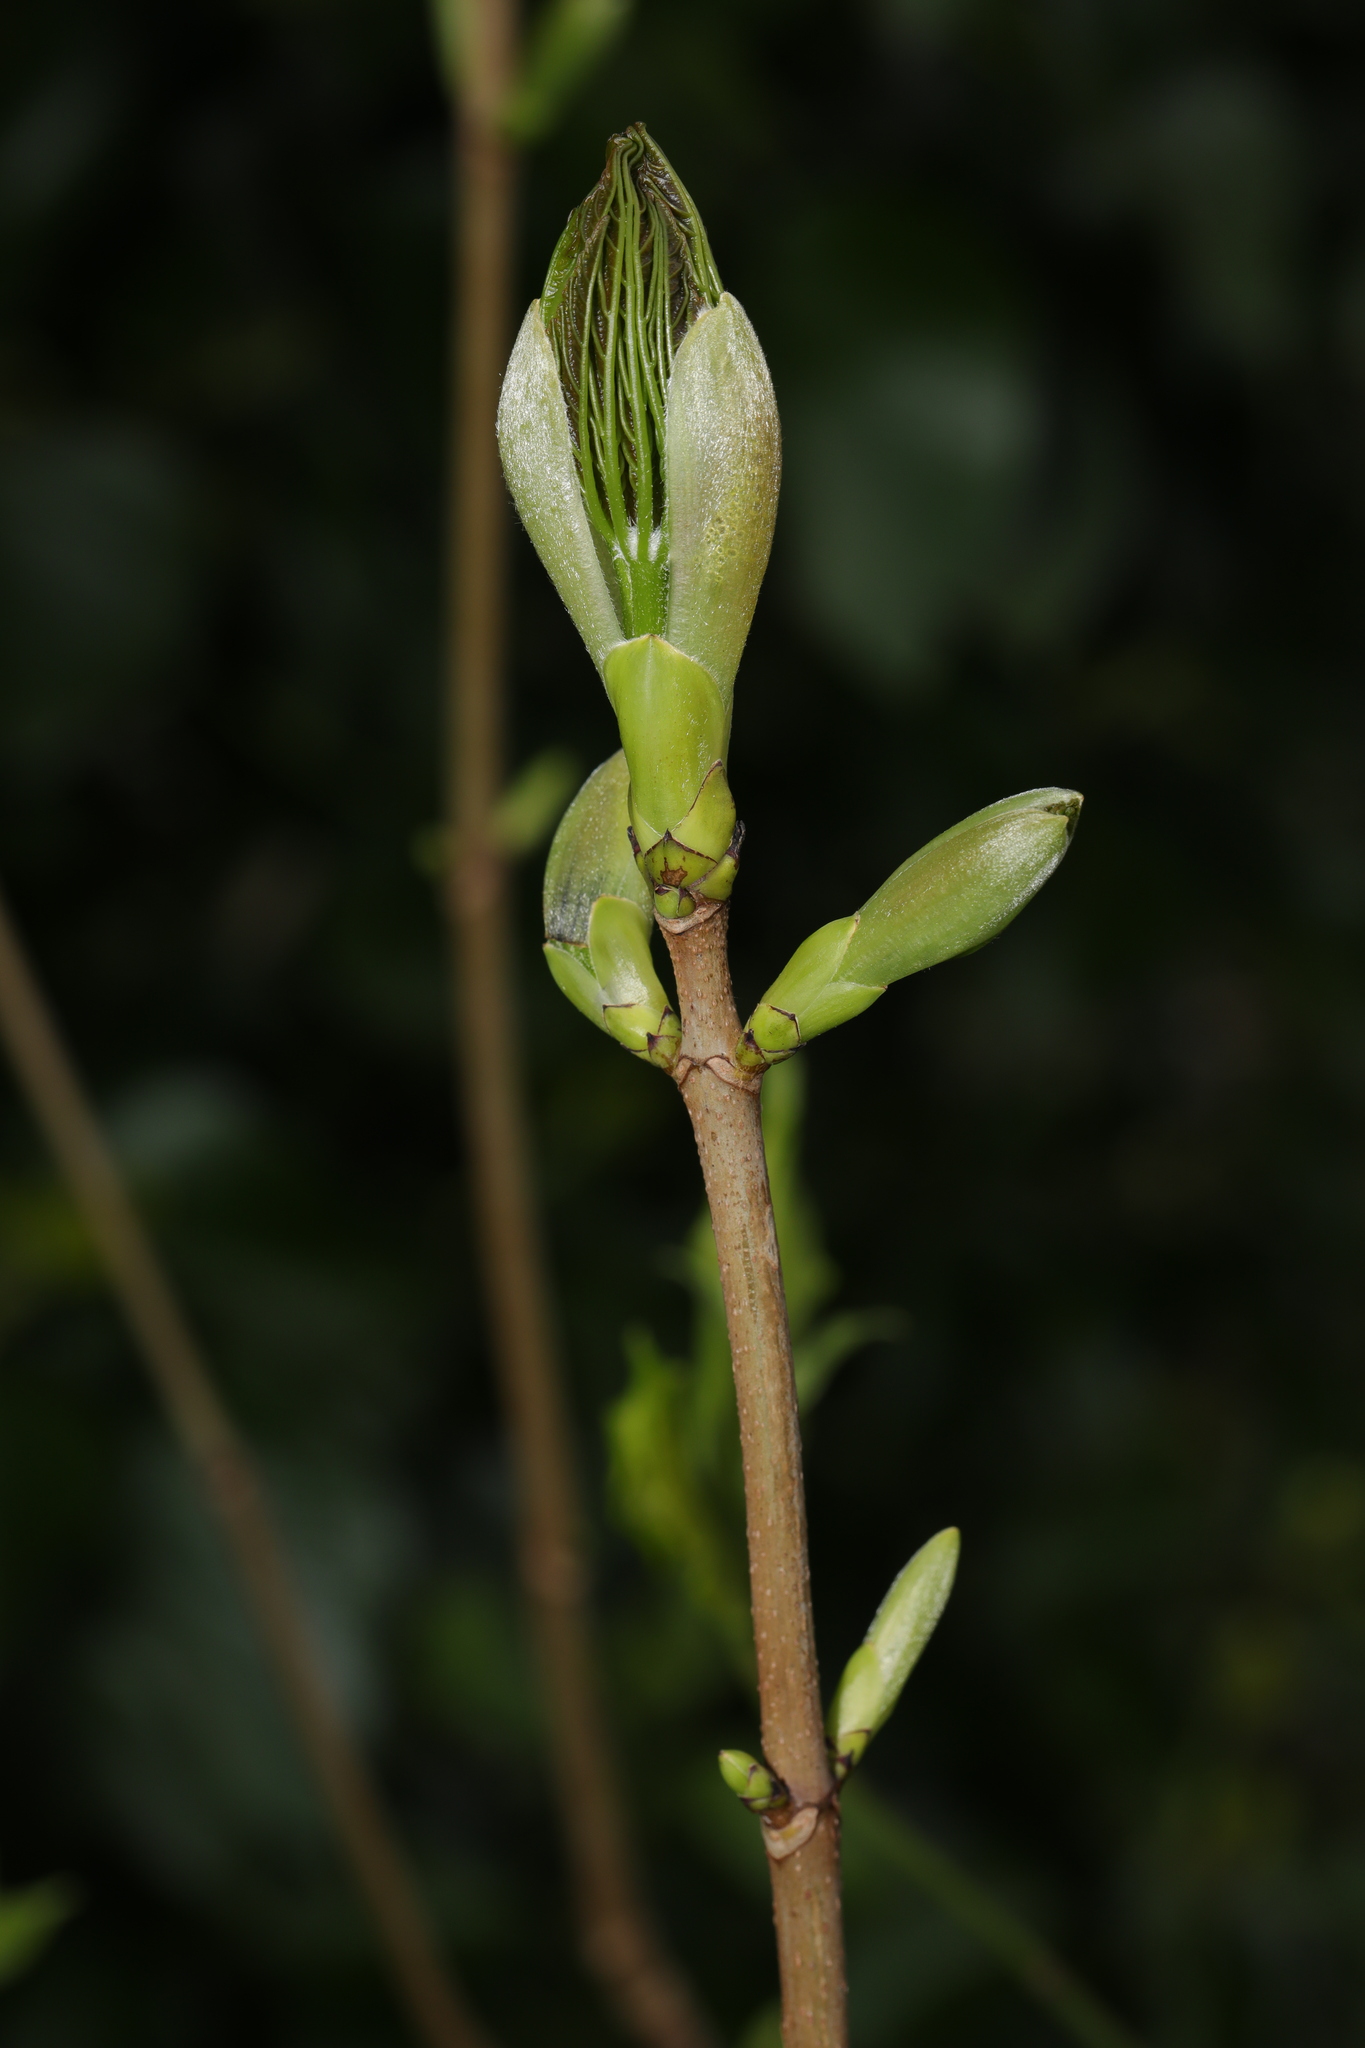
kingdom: Plantae
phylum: Tracheophyta
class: Magnoliopsida
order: Sapindales
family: Sapindaceae
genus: Acer
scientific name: Acer pseudoplatanus
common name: Sycamore
